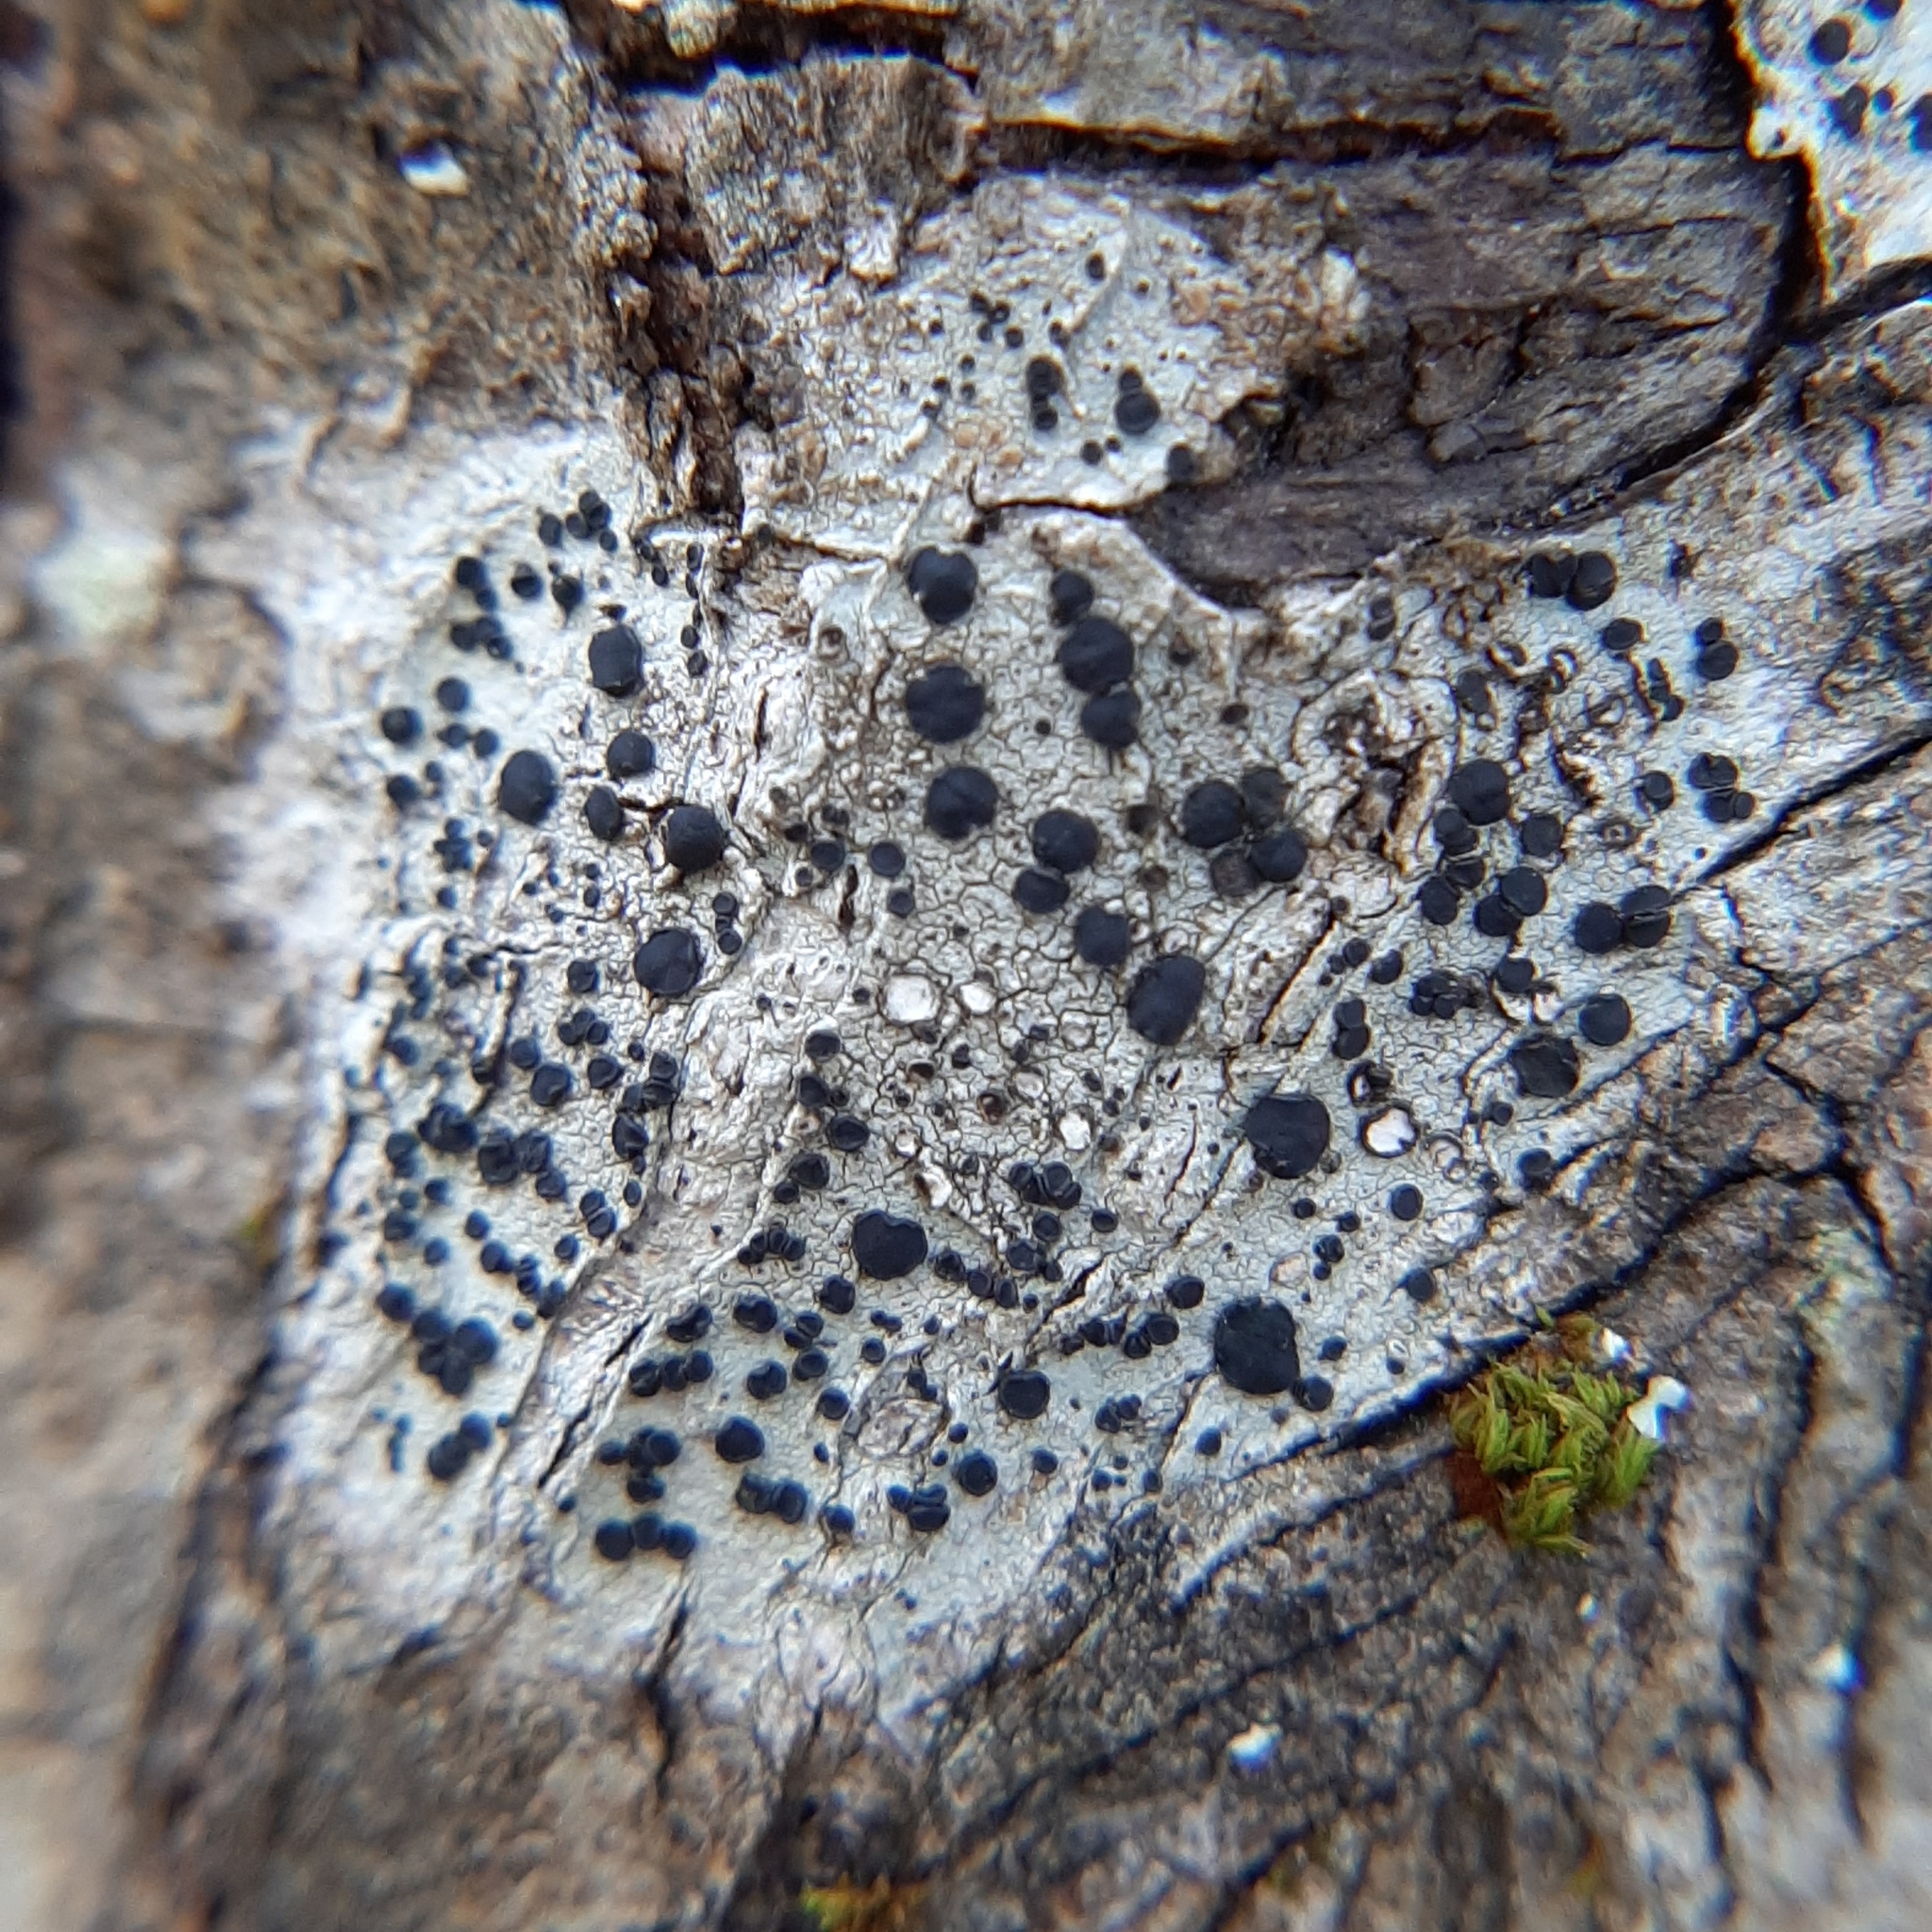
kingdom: Fungi
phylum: Ascomycota
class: Lecanoromycetes
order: Caliciales
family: Caliciaceae
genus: Buellia
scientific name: Buellia erubescens
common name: Common button lichen
